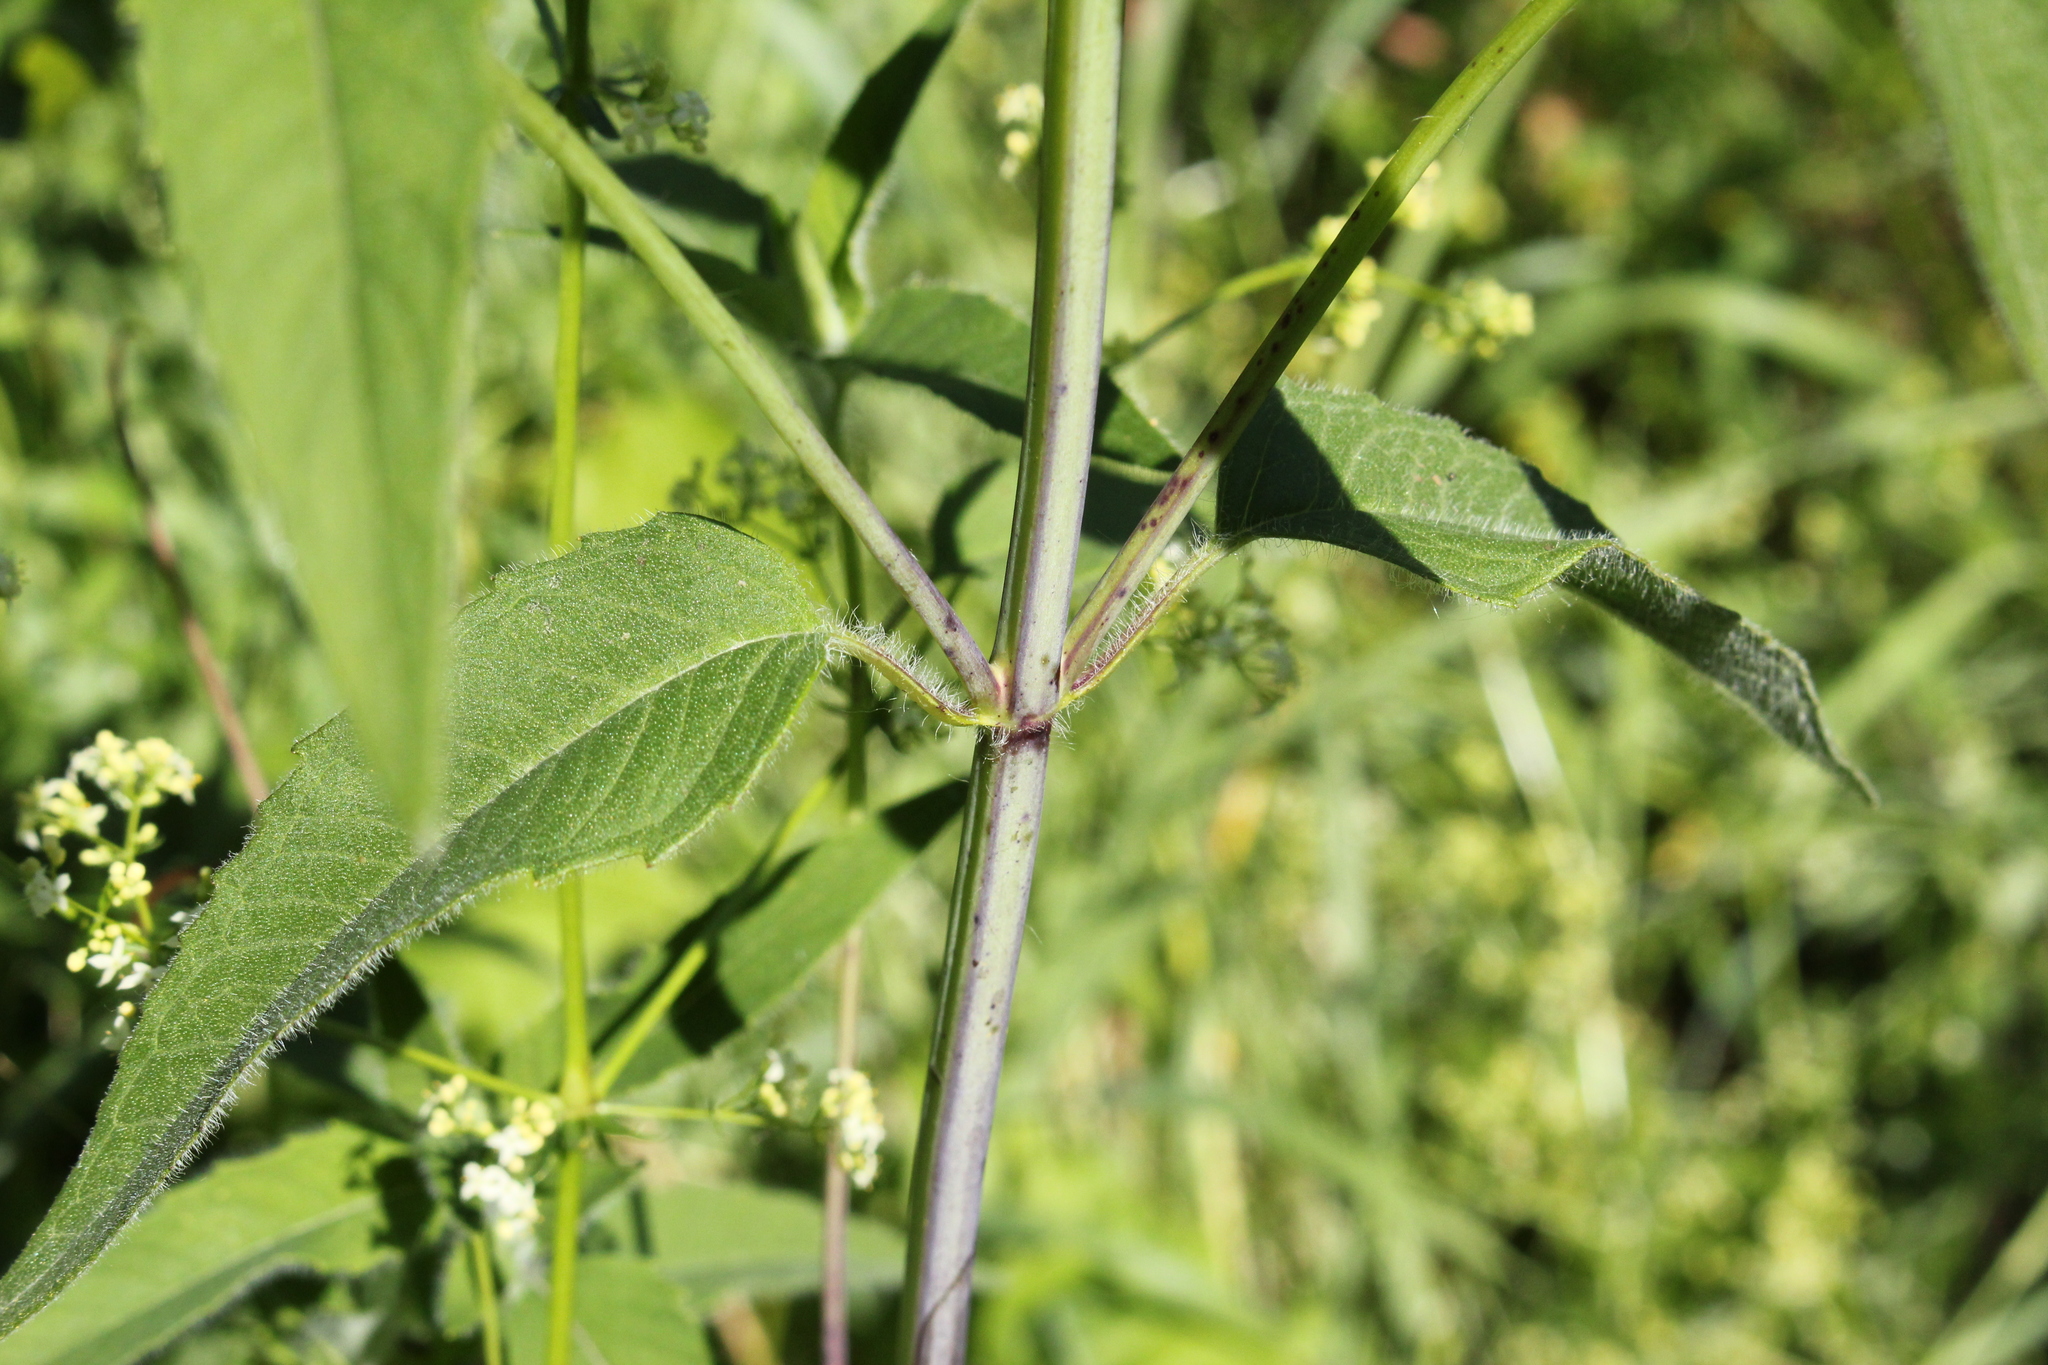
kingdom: Plantae
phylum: Tracheophyta
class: Magnoliopsida
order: Lamiales
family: Lamiaceae
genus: Monarda
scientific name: Monarda fistulosa
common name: Purple beebalm
